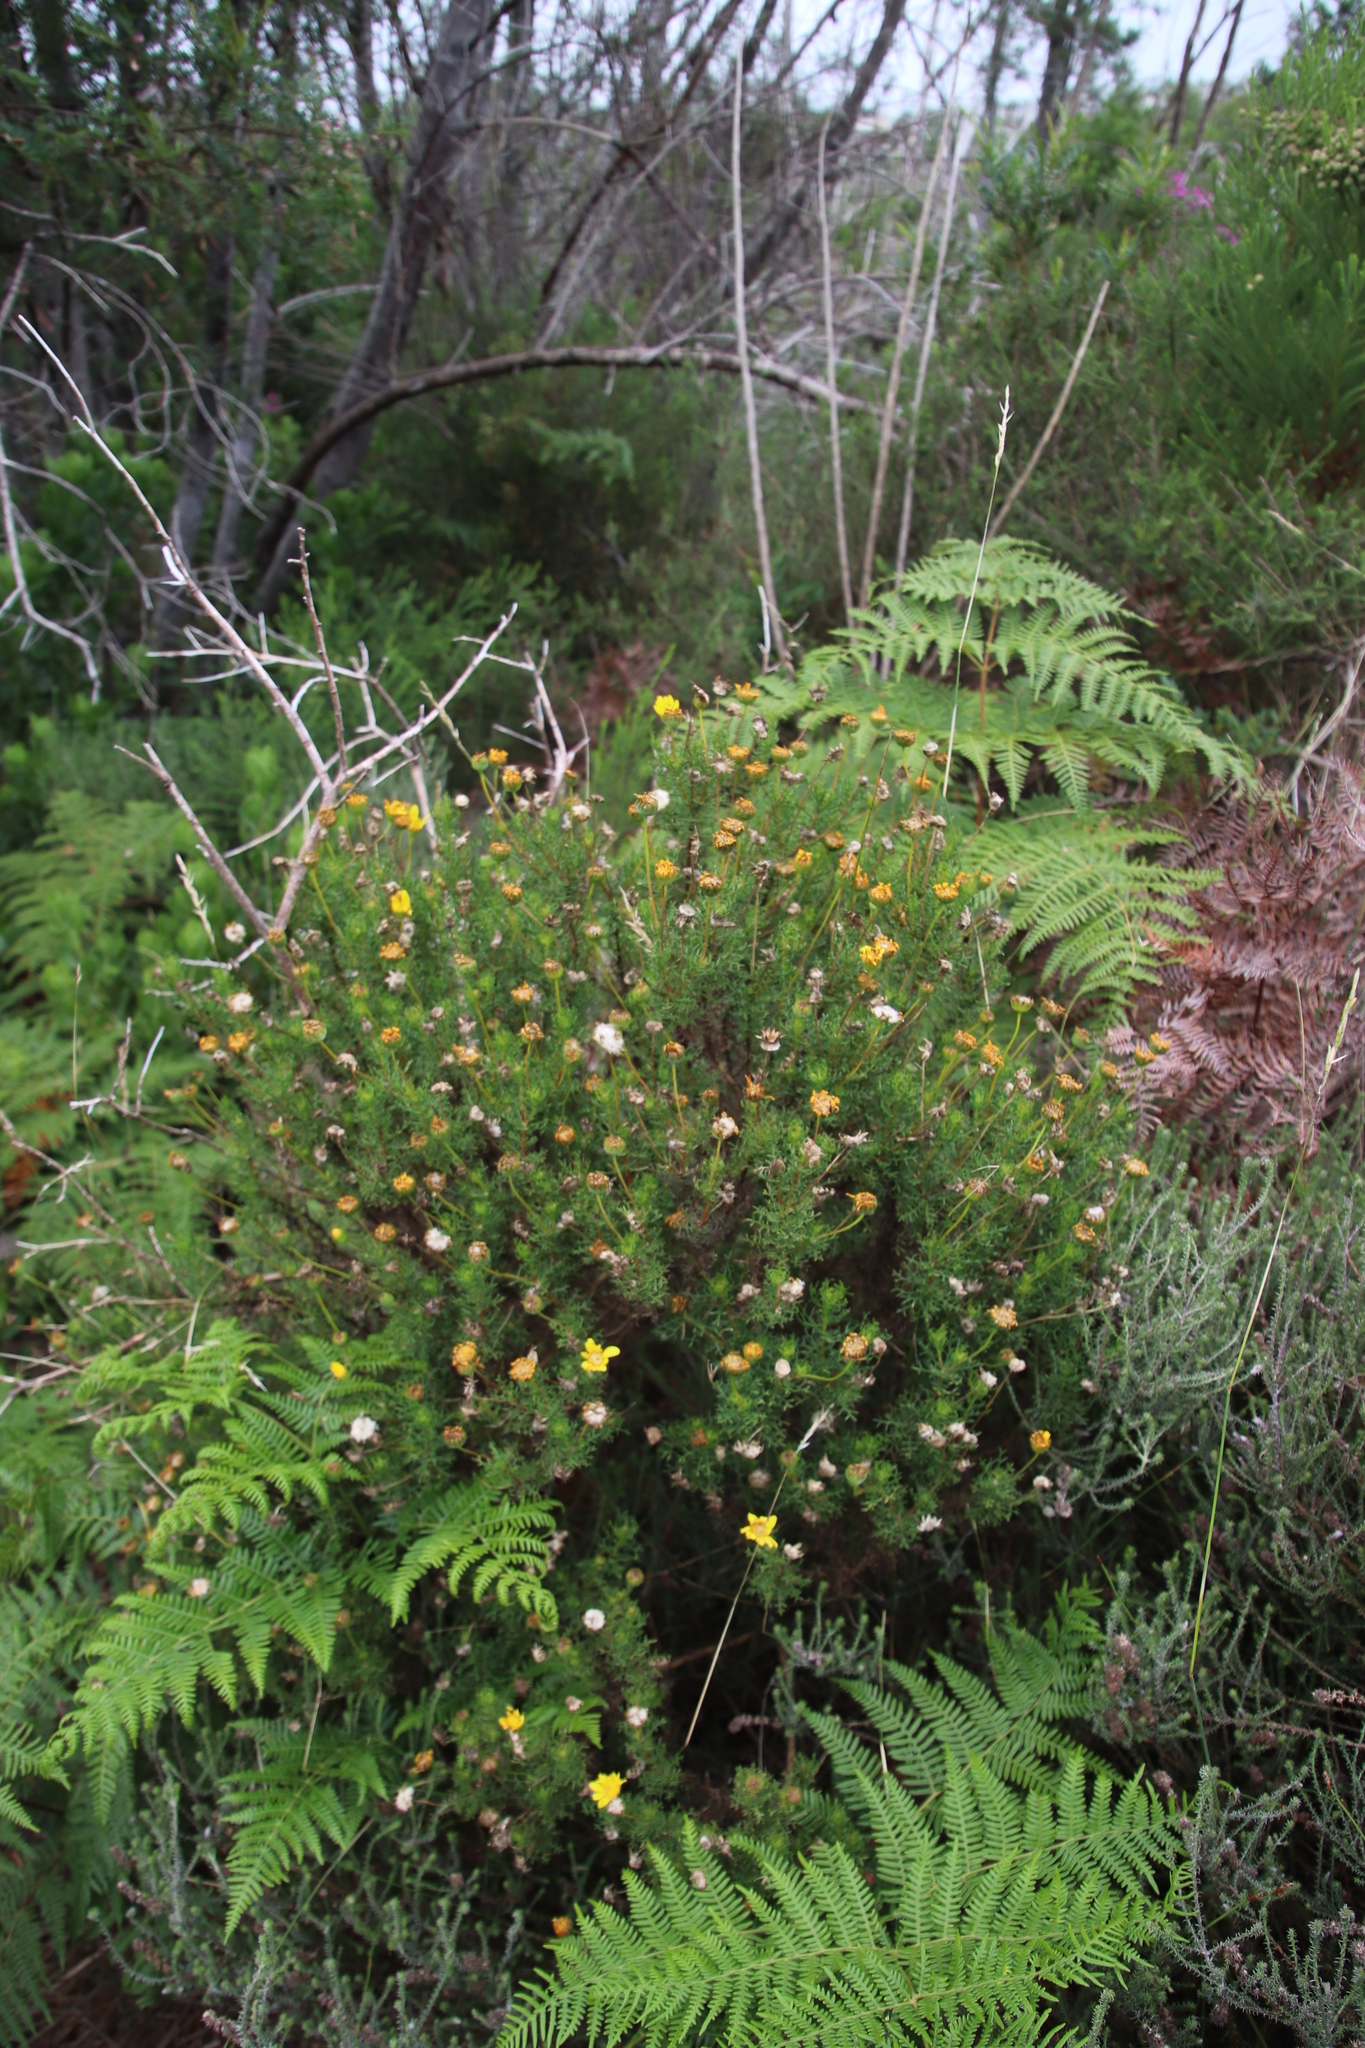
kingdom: Plantae
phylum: Tracheophyta
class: Magnoliopsida
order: Asterales
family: Asteraceae
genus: Euryops
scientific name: Euryops abrotanifolius
